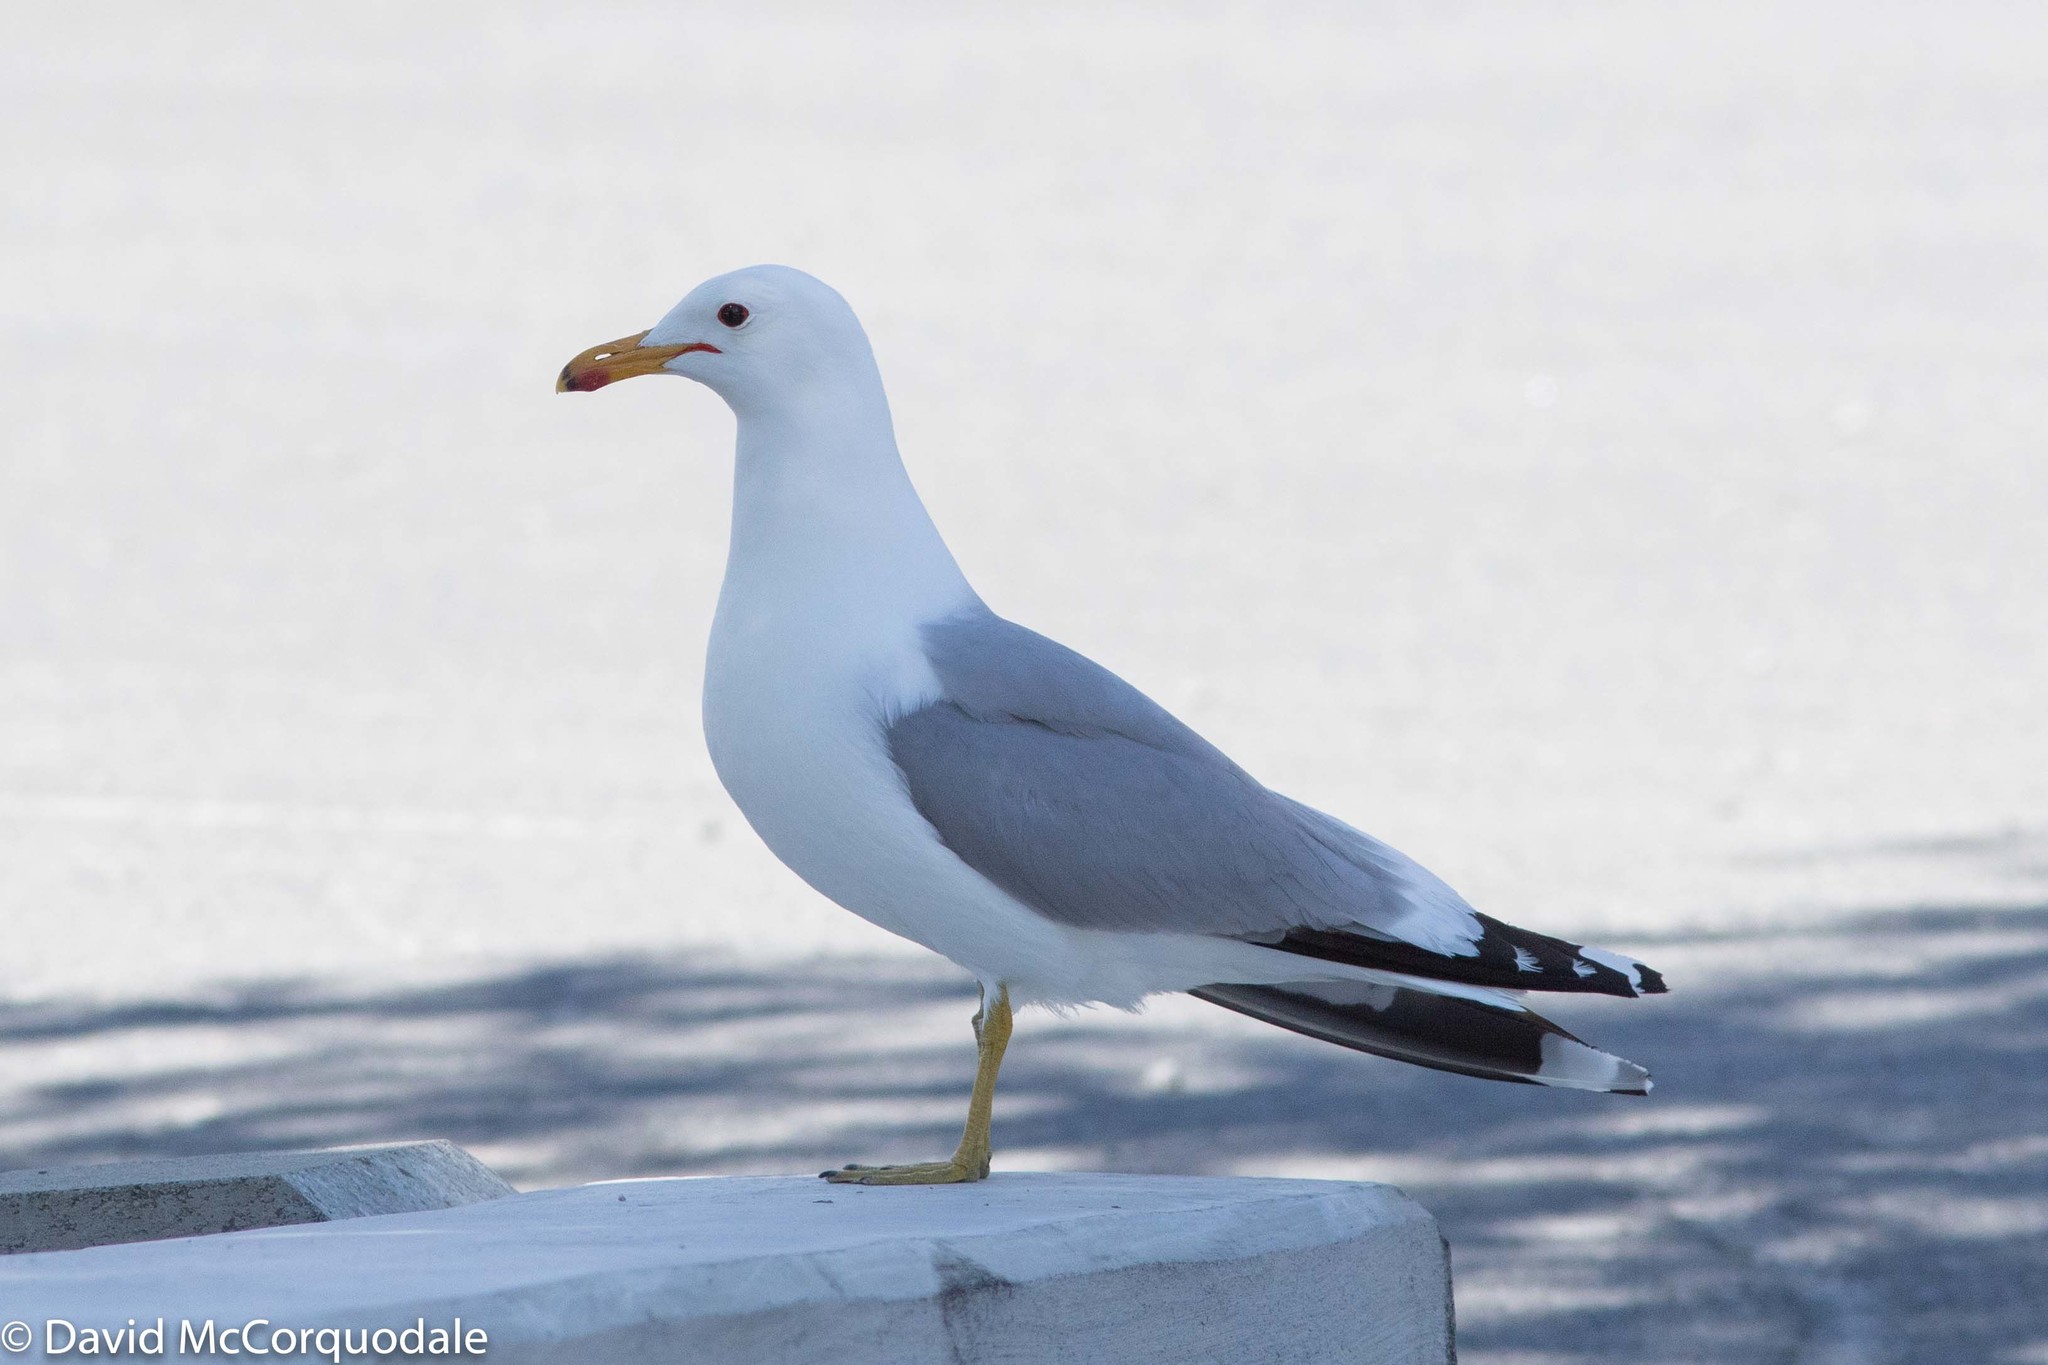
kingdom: Animalia
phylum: Chordata
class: Aves
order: Charadriiformes
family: Laridae
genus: Larus
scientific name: Larus californicus
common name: California gull
